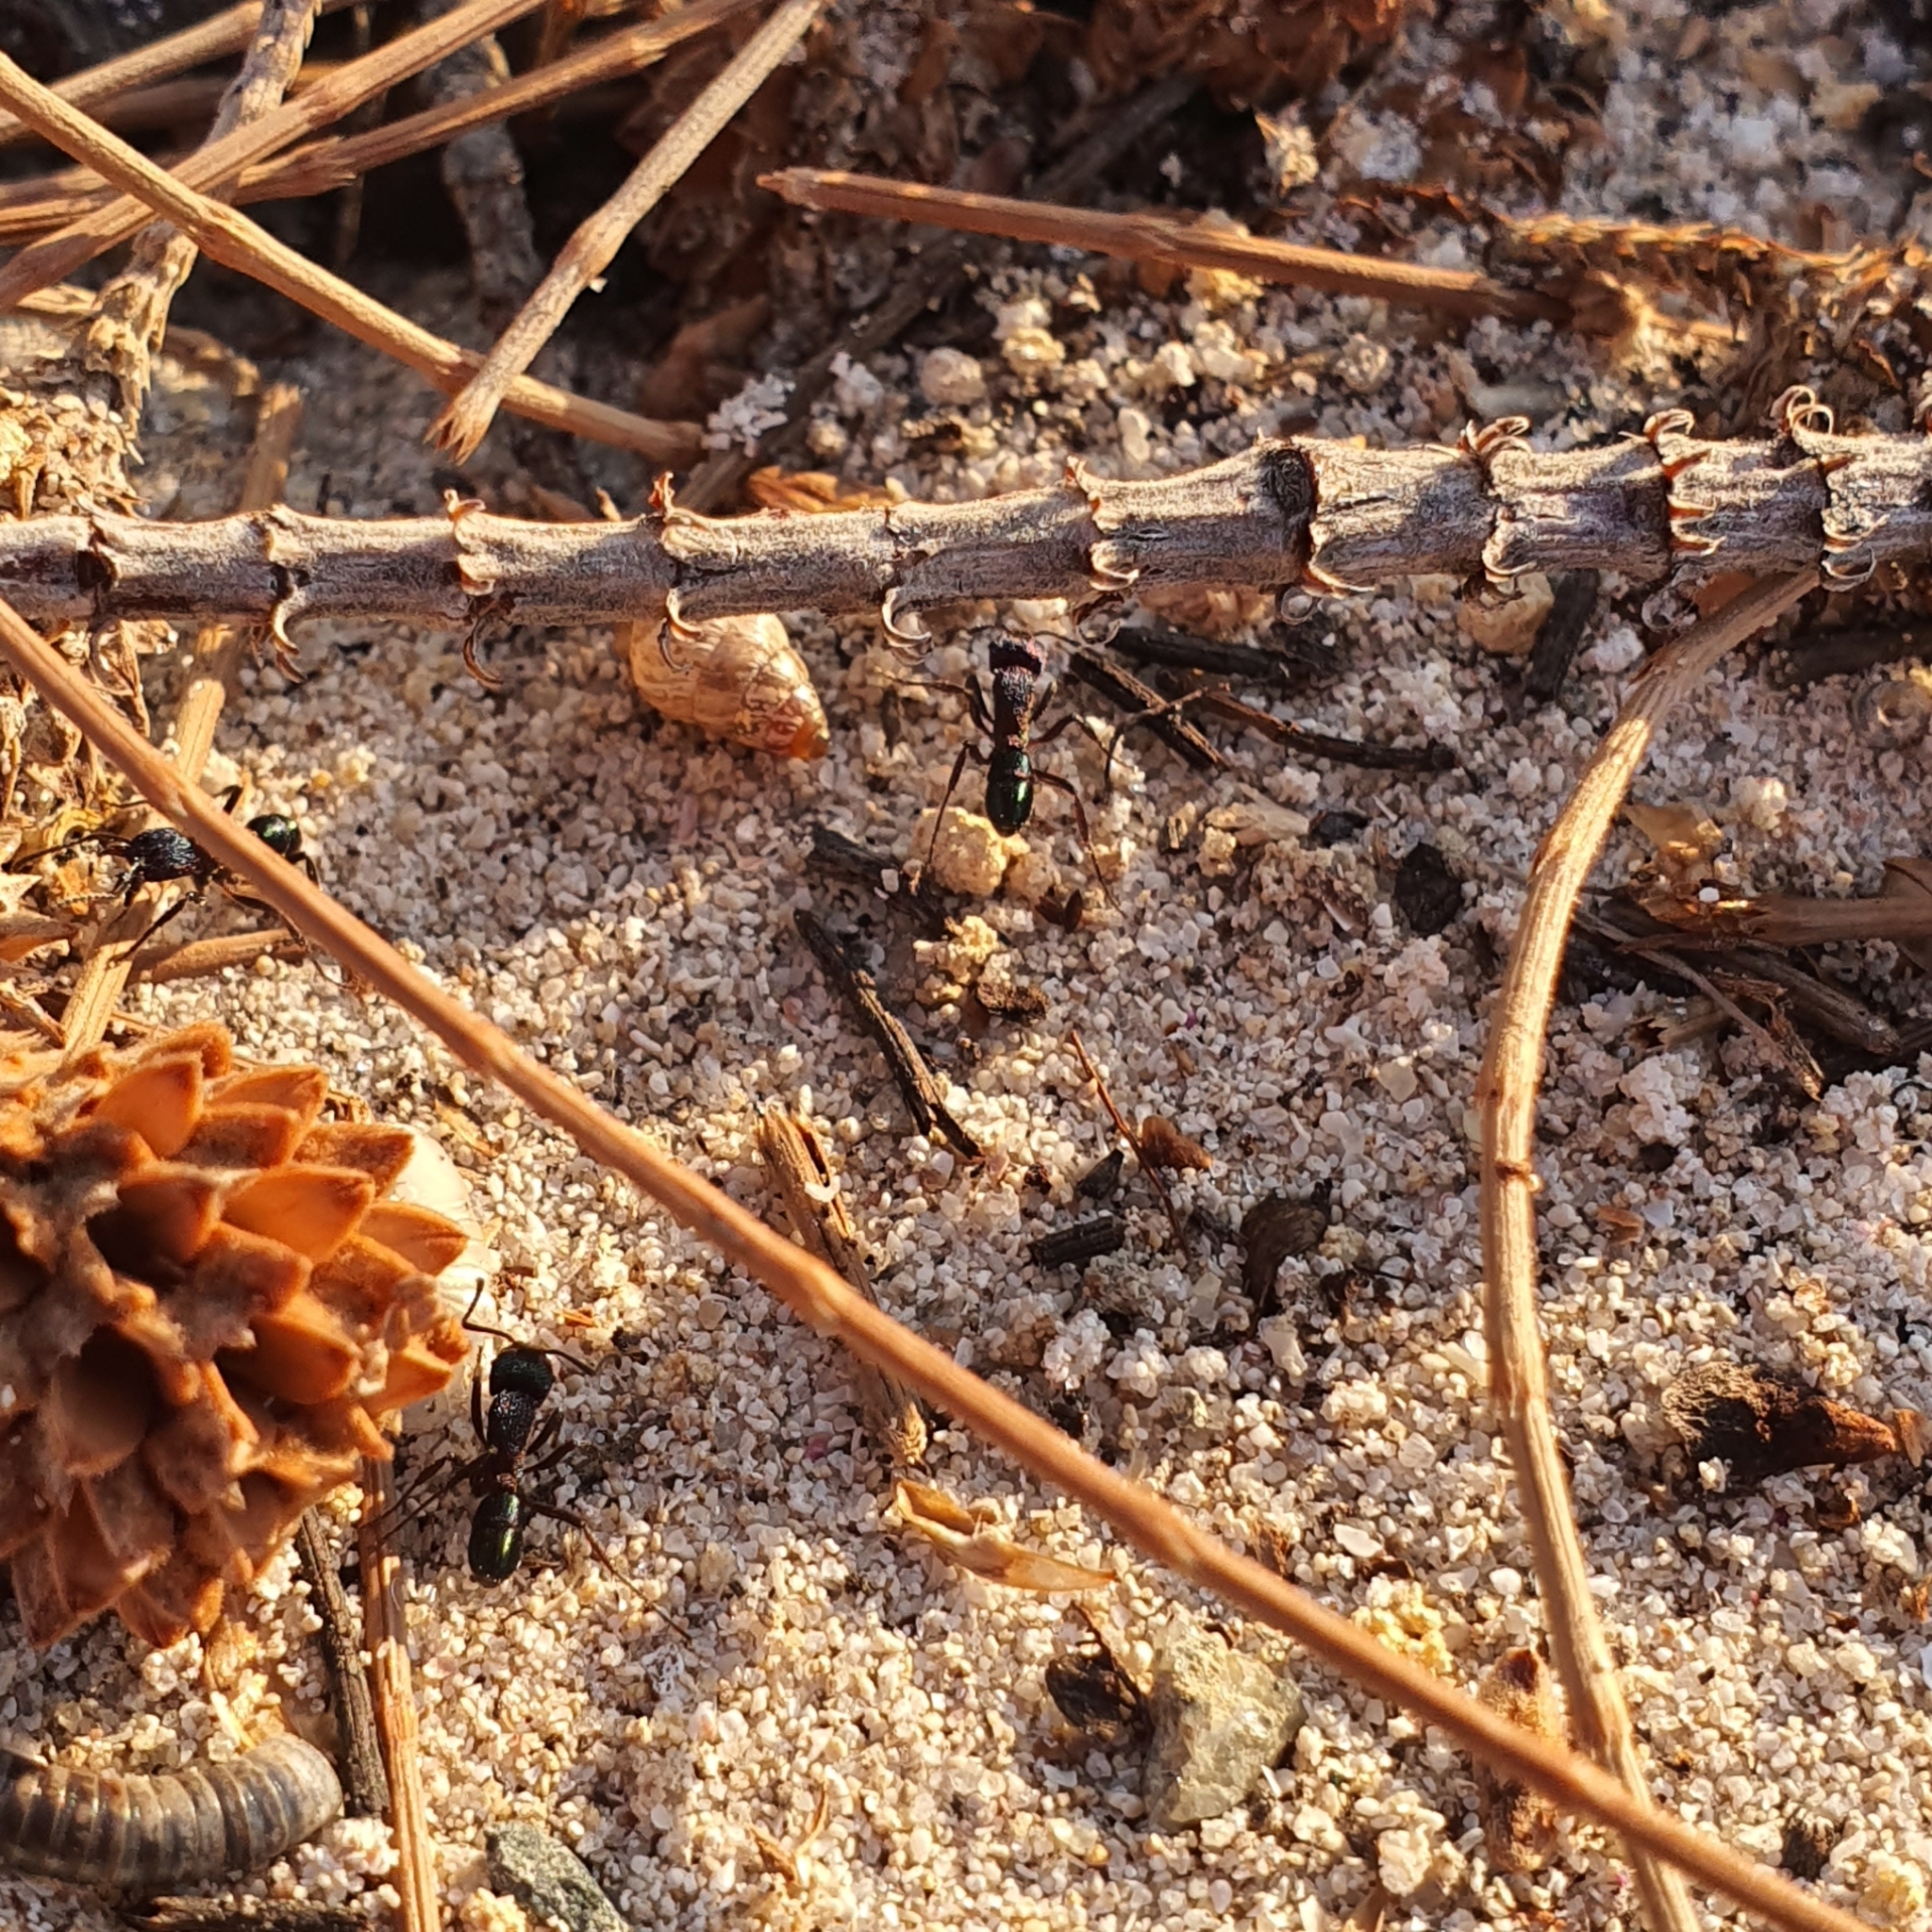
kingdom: Animalia
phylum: Arthropoda
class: Insecta
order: Hymenoptera
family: Formicidae
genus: Rhytidoponera
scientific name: Rhytidoponera metallica
